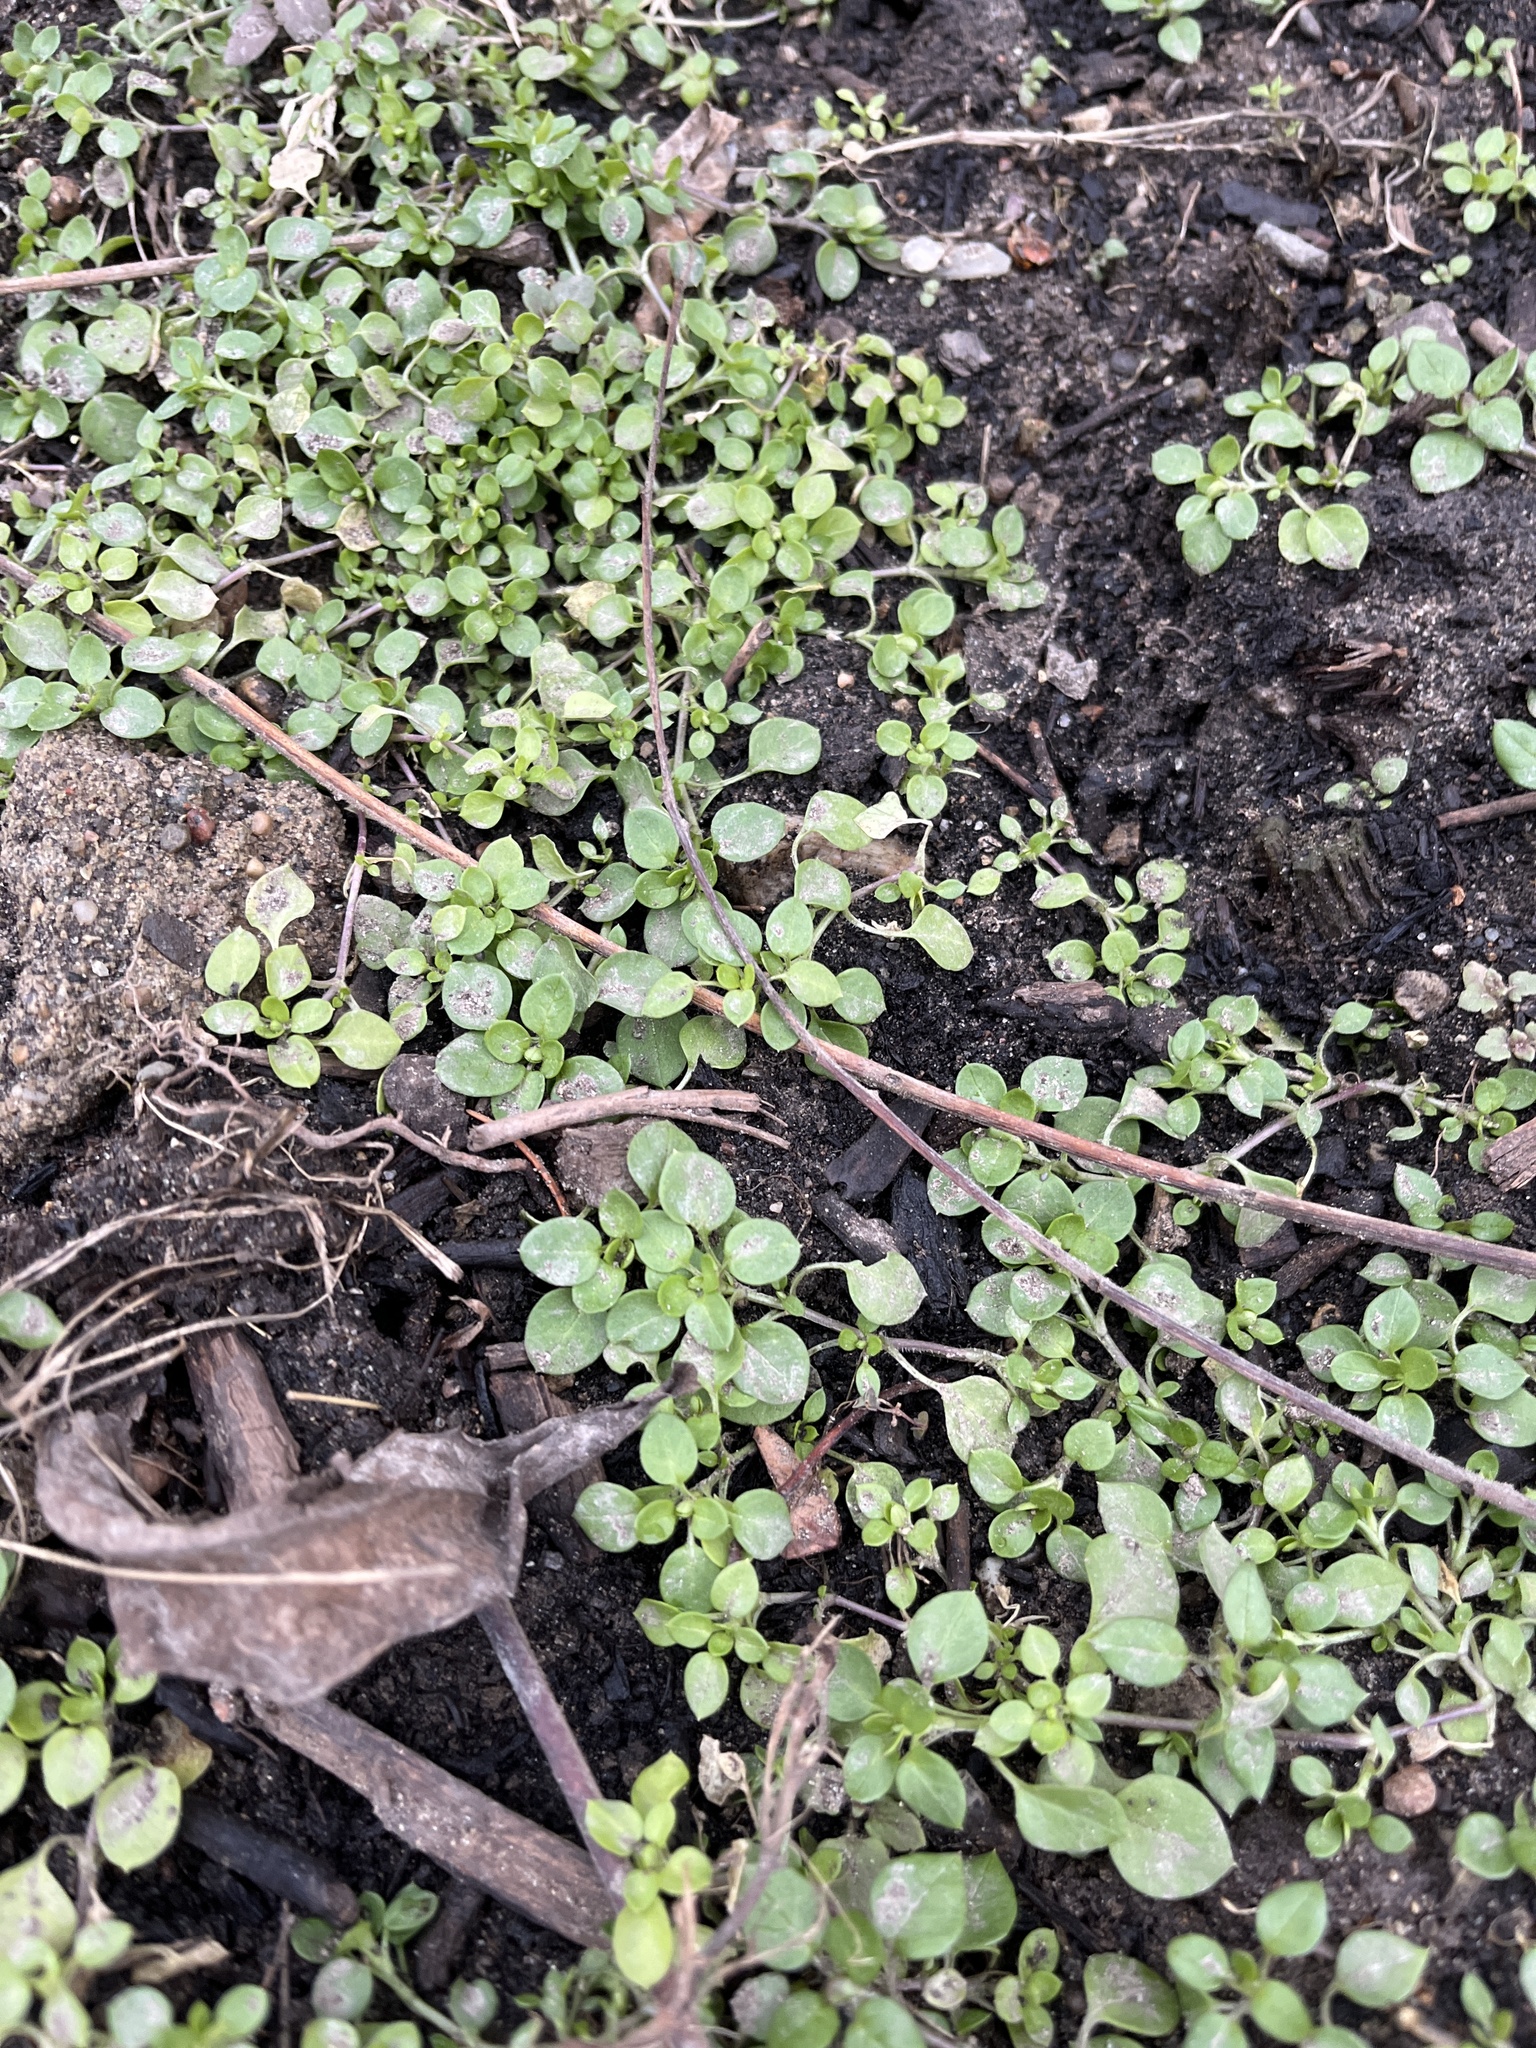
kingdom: Plantae
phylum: Tracheophyta
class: Magnoliopsida
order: Caryophyllales
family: Caryophyllaceae
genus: Stellaria
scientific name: Stellaria media
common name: Common chickweed
